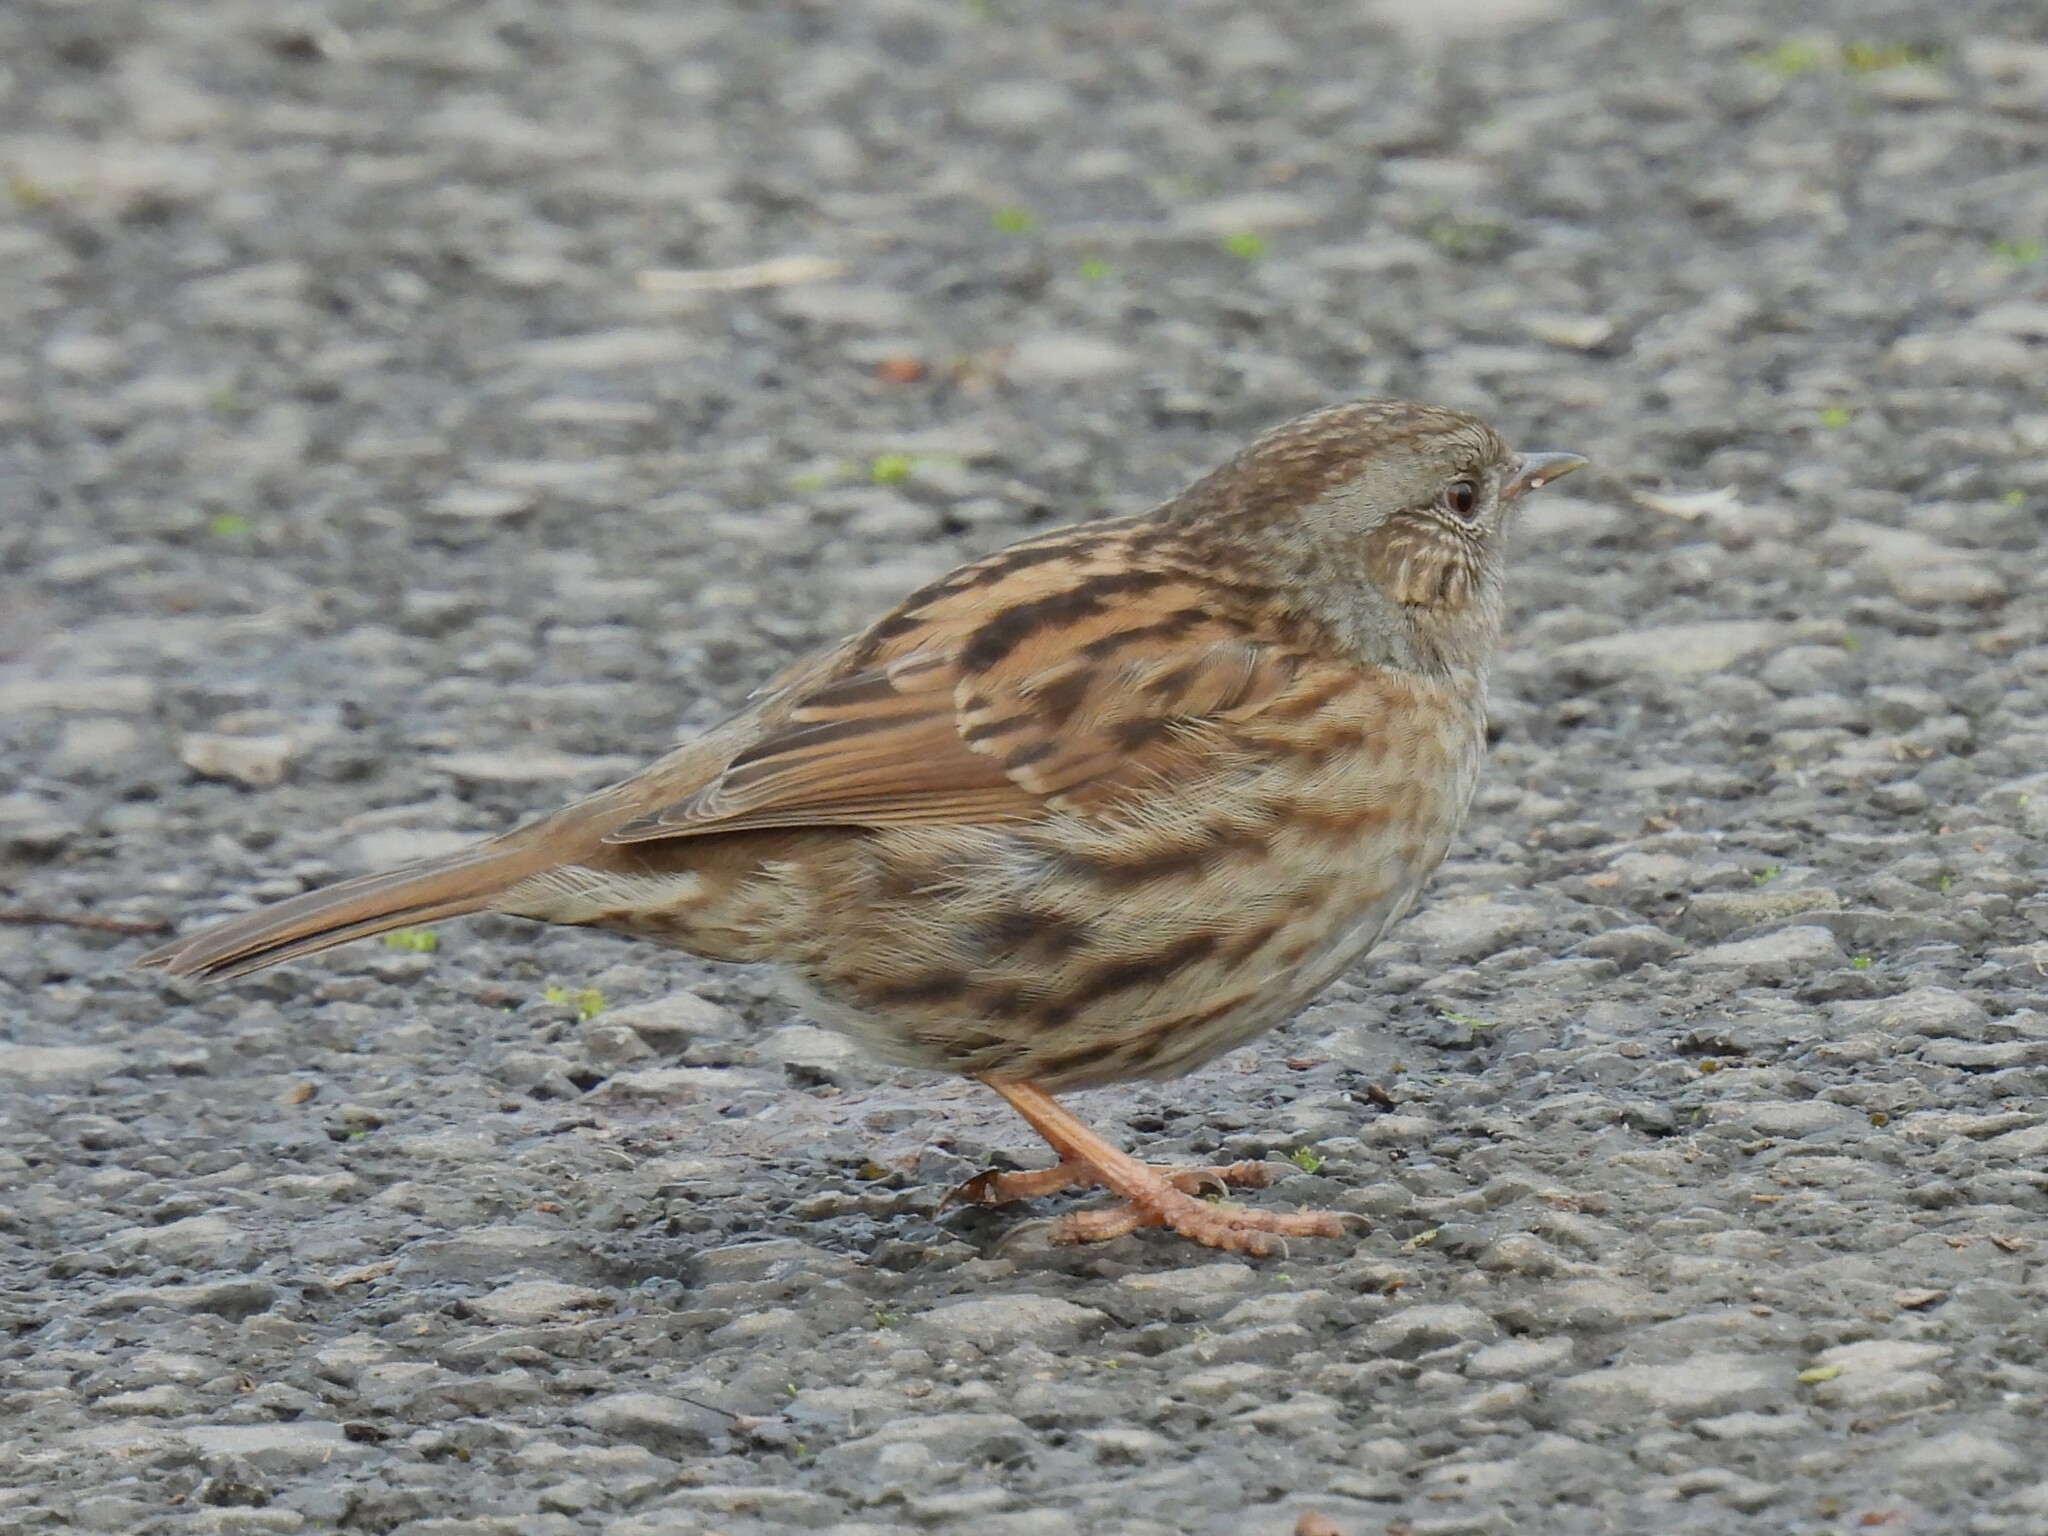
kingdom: Animalia
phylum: Chordata
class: Aves
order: Passeriformes
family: Prunellidae
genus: Prunella
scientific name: Prunella modularis
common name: Dunnock
